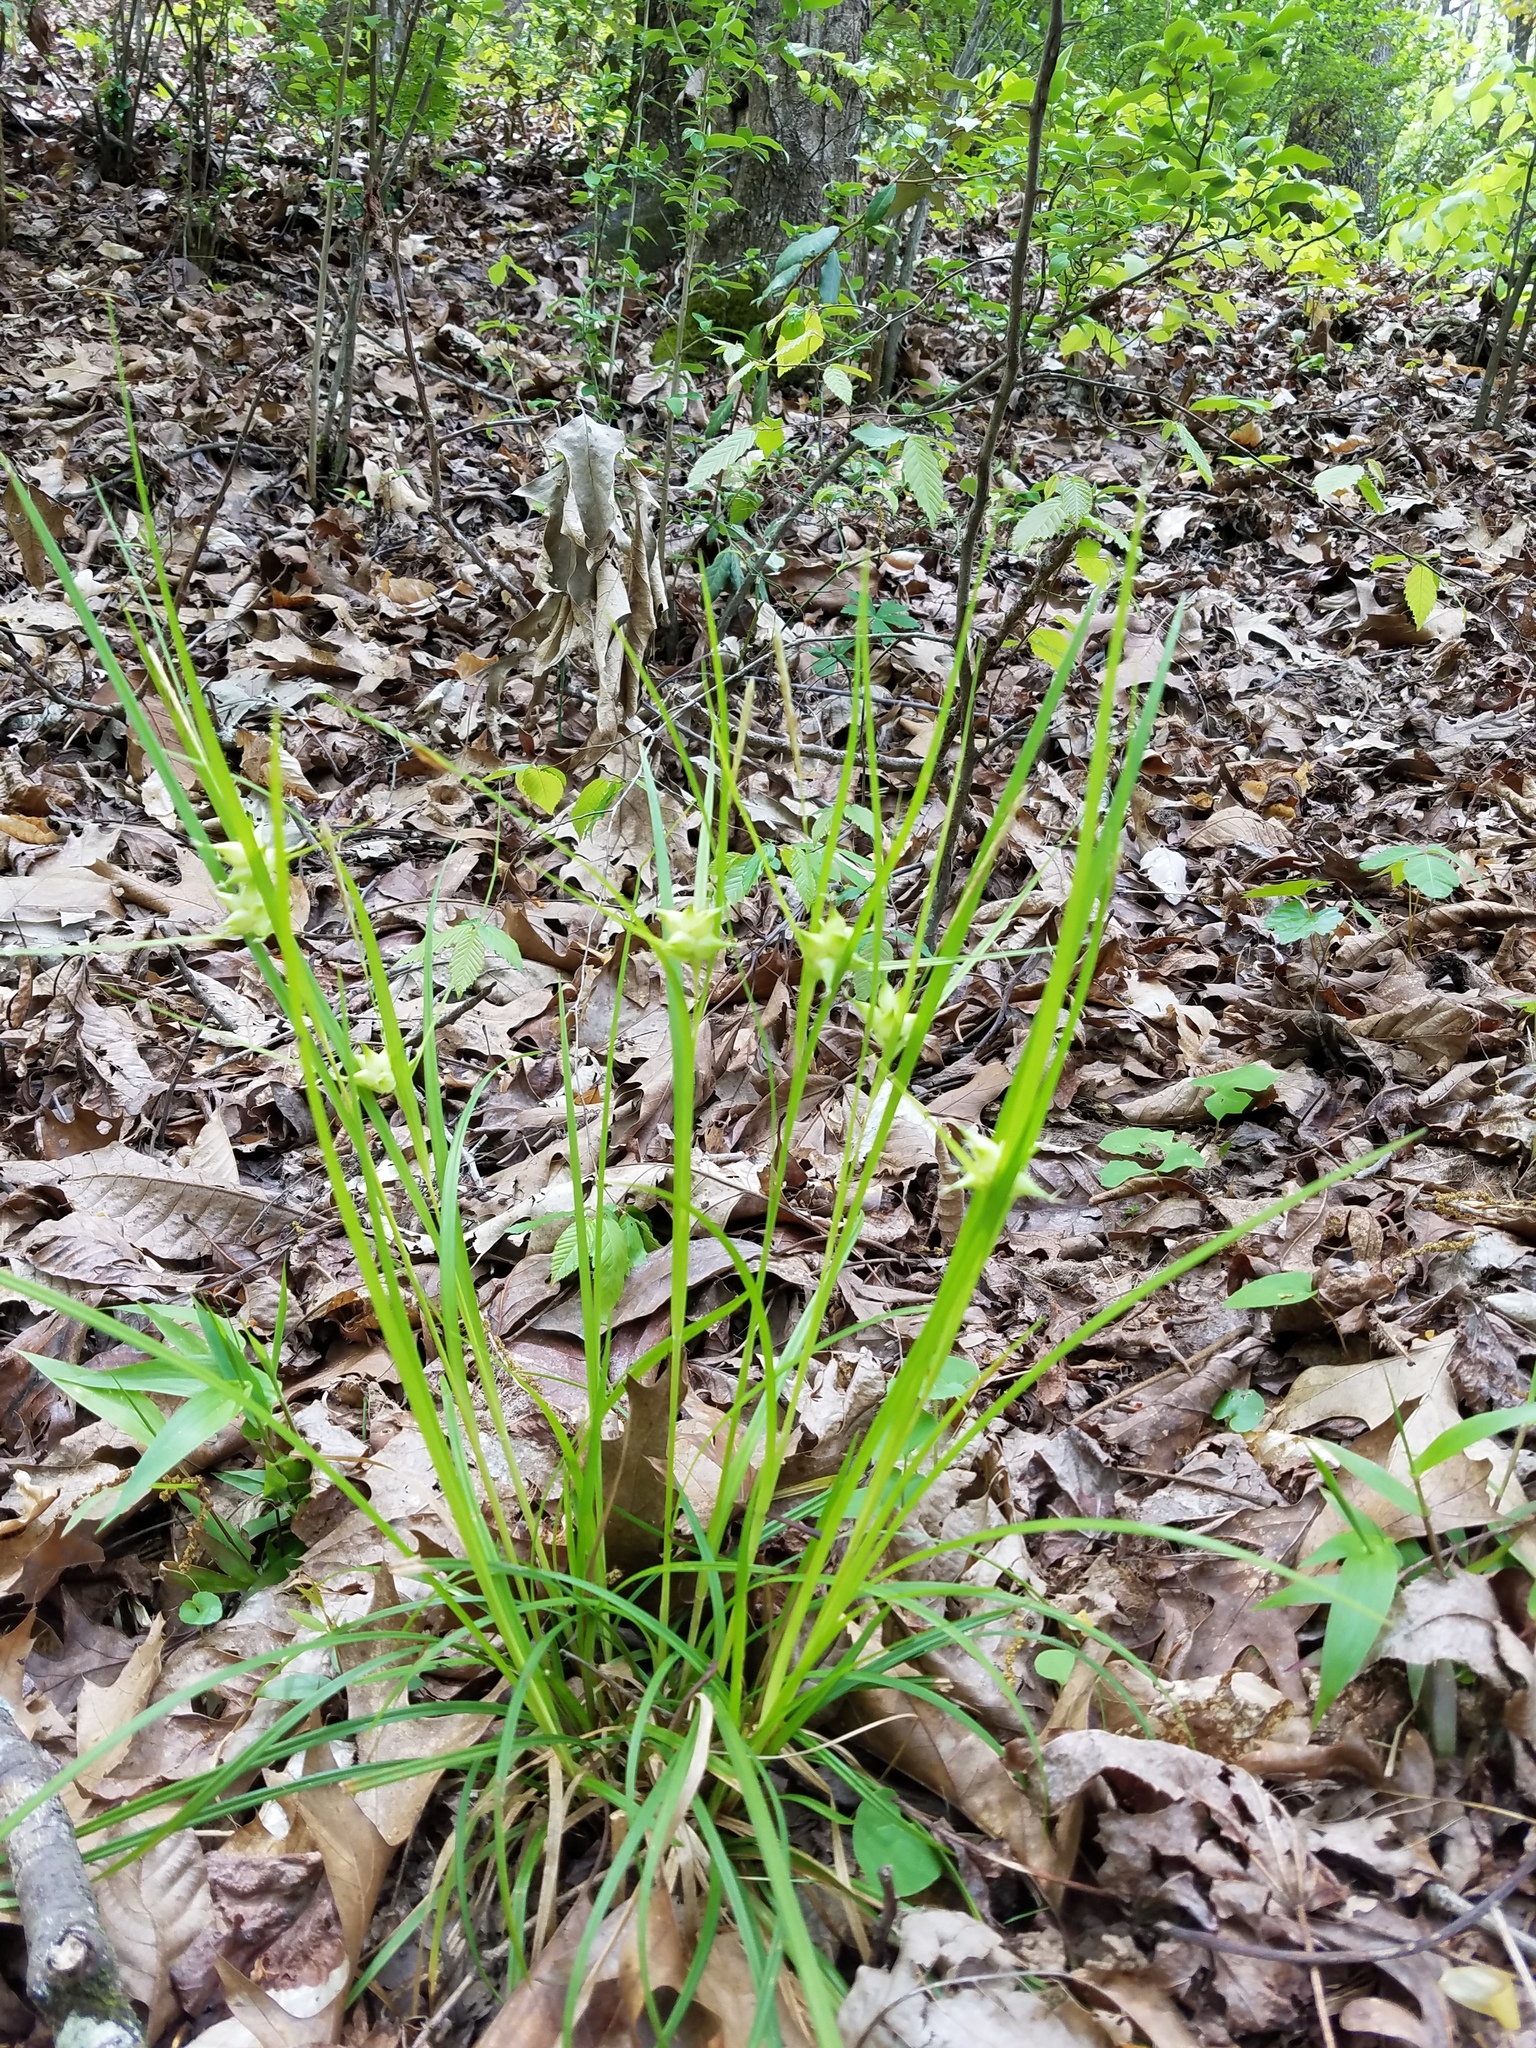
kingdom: Plantae
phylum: Tracheophyta
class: Liliopsida
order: Poales
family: Cyperaceae
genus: Carex
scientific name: Carex intumescens
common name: Greater bladder sedge
